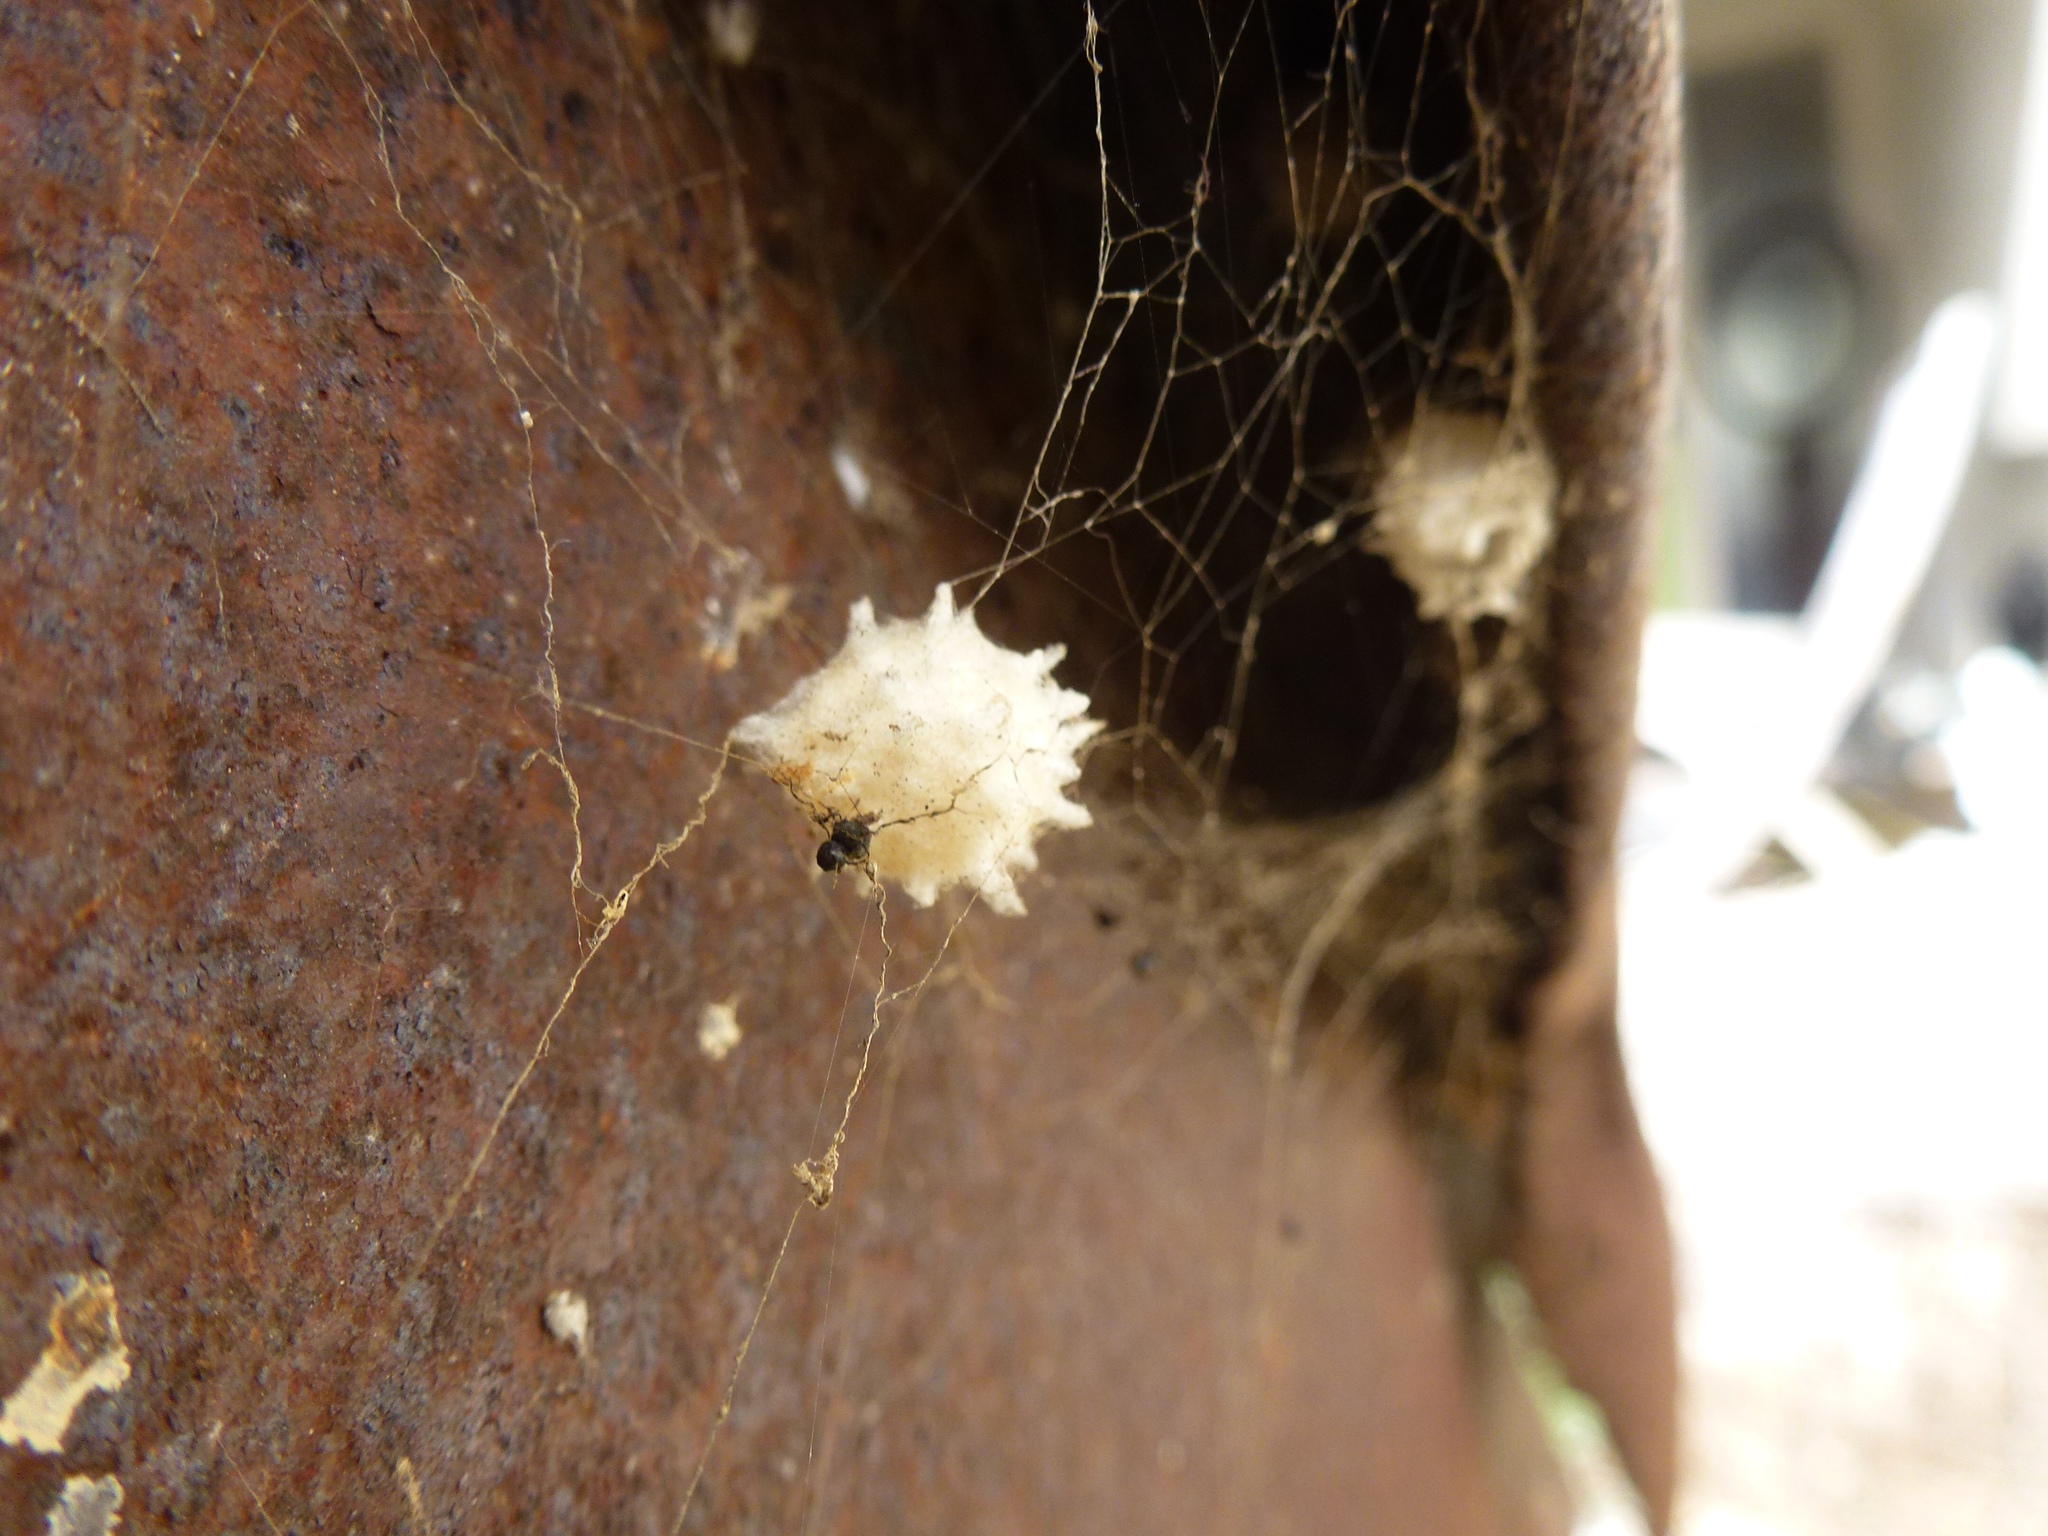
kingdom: Animalia
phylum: Arthropoda
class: Arachnida
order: Araneae
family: Theridiidae
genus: Latrodectus
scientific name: Latrodectus geometricus
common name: Brown widow spider
